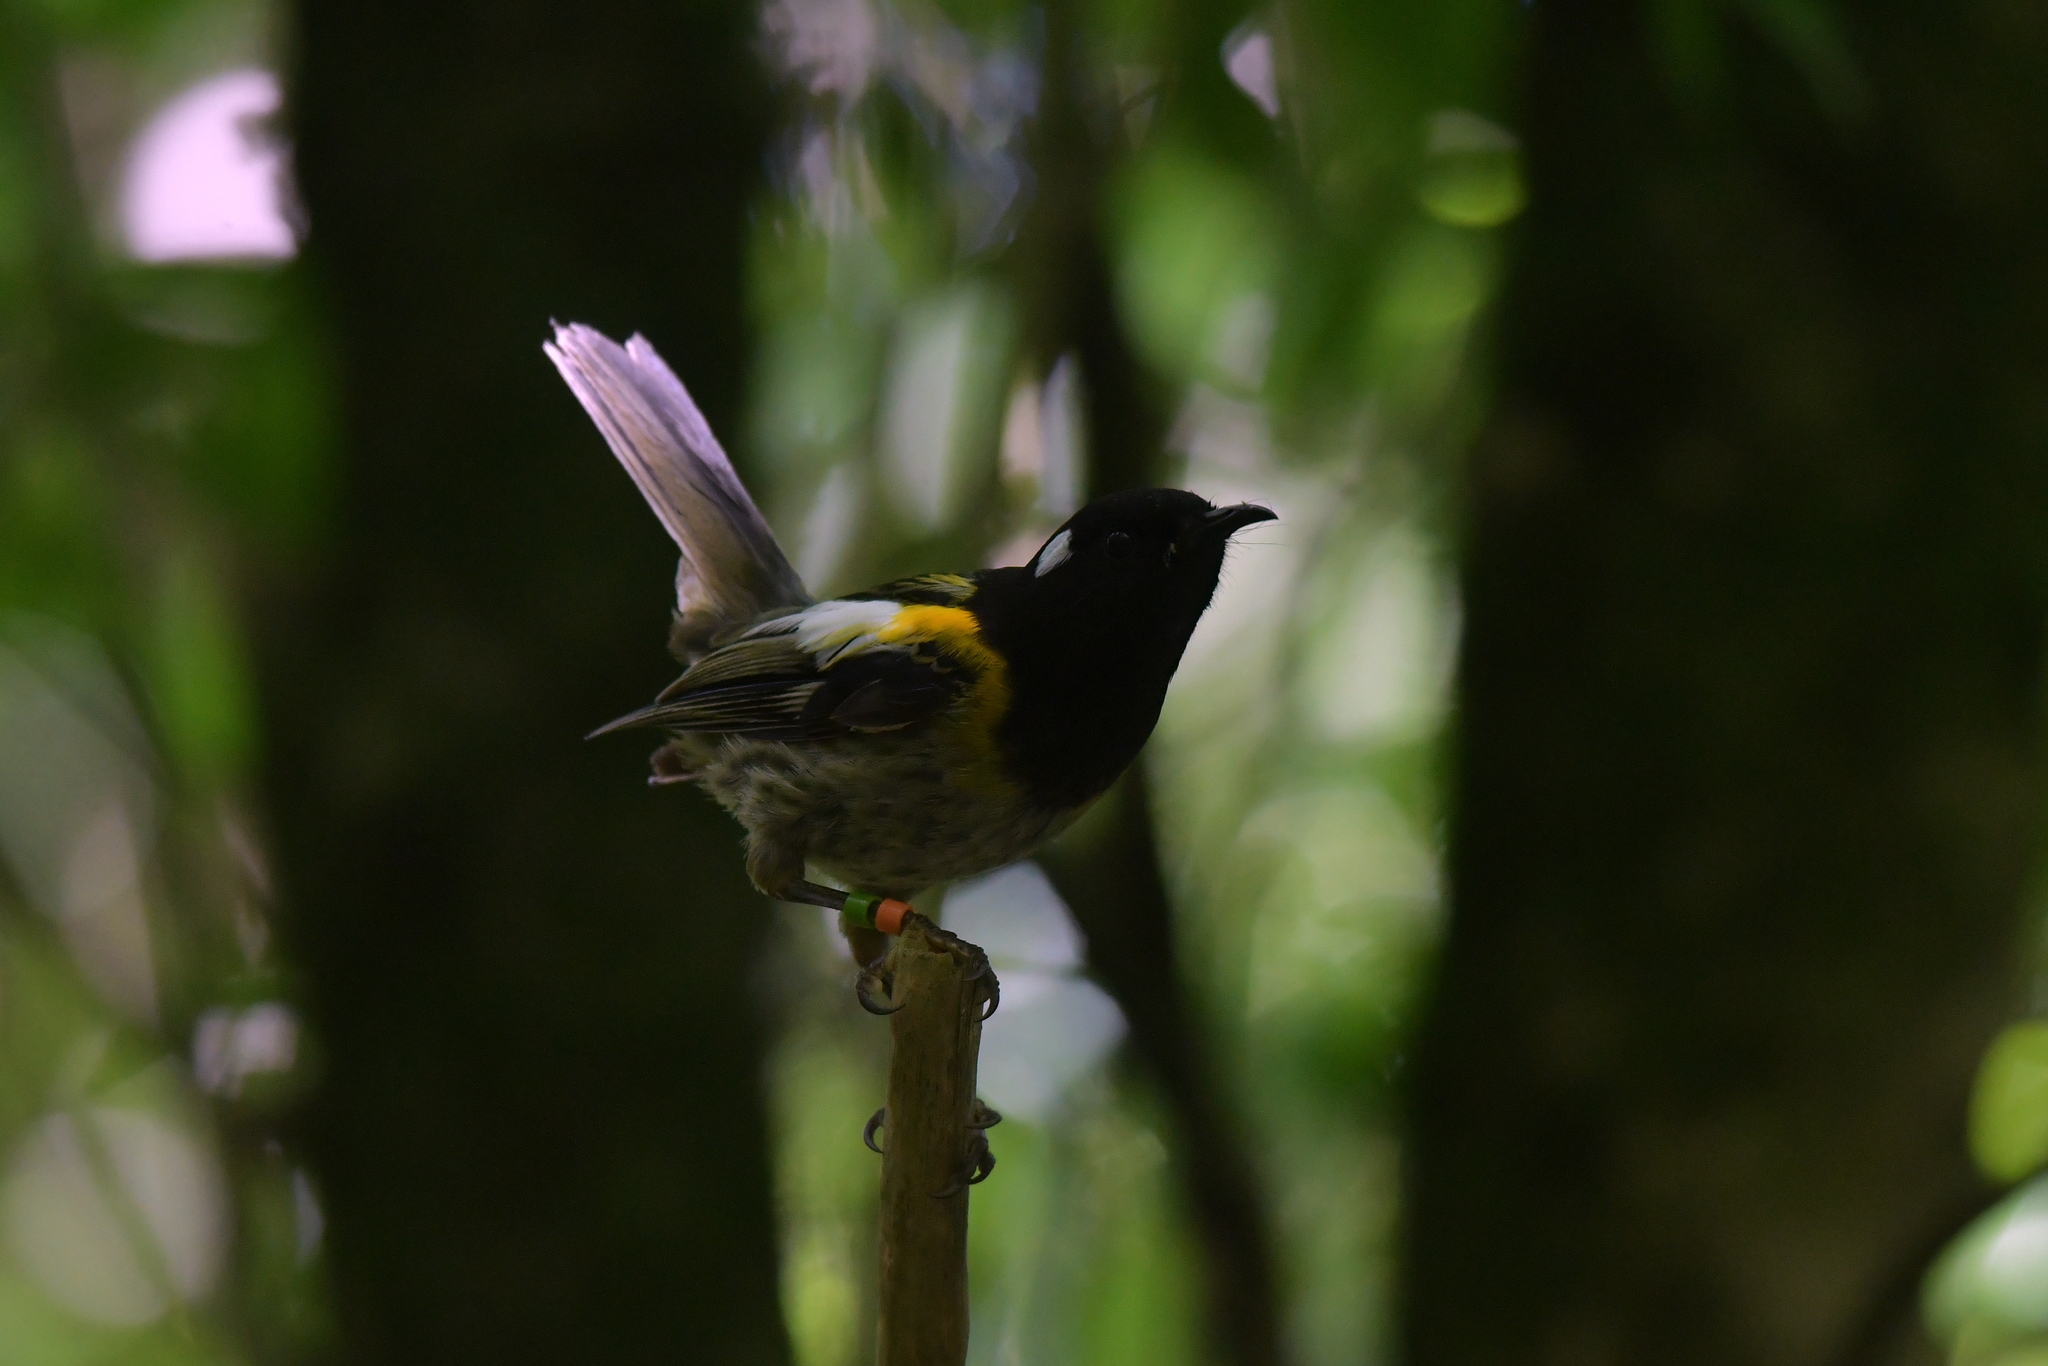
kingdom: Animalia
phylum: Chordata
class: Aves
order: Passeriformes
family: Notiomystidae
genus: Notiomystis
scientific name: Notiomystis cincta
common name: Stitchbird
